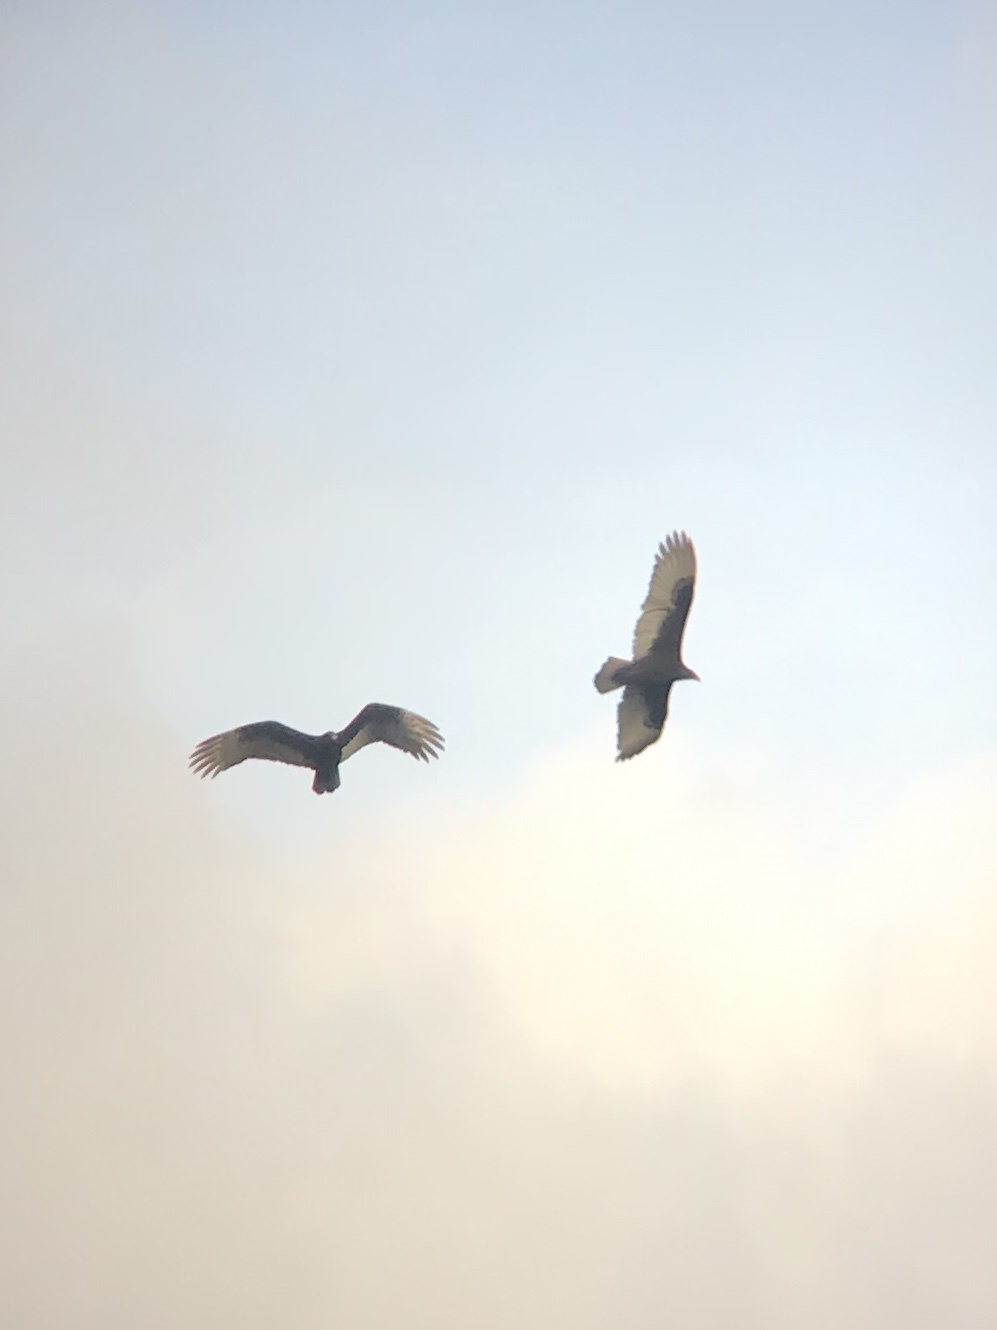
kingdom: Animalia
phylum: Chordata
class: Aves
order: Accipitriformes
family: Cathartidae
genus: Cathartes
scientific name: Cathartes aura
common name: Turkey vulture
